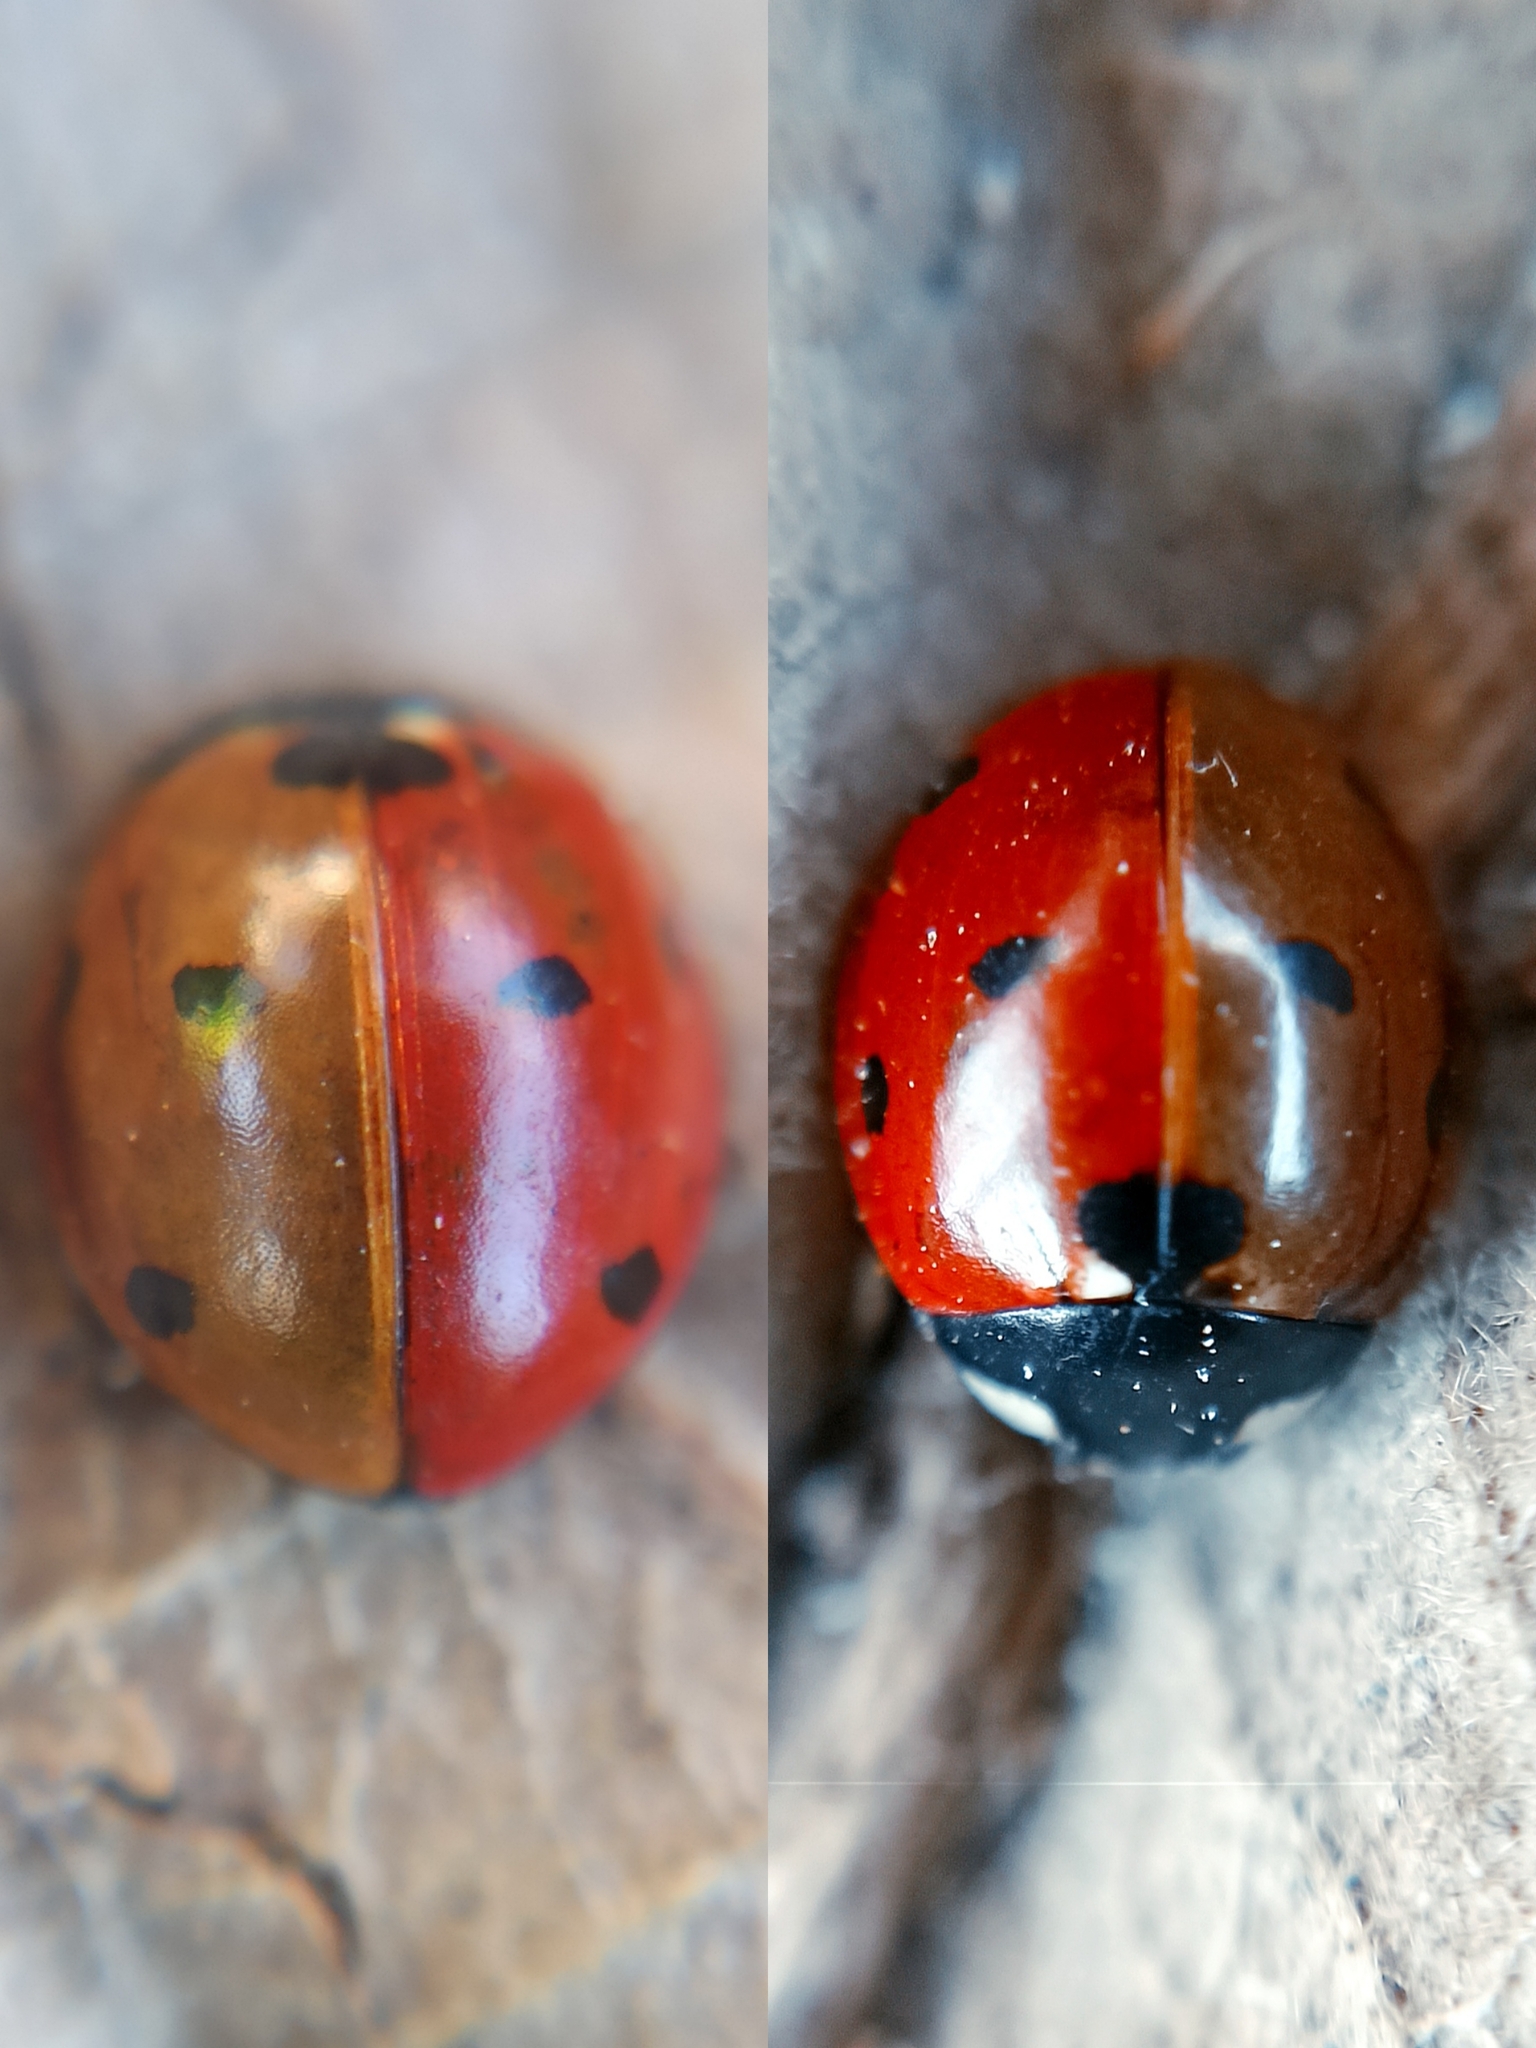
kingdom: Animalia
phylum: Arthropoda
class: Insecta
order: Coleoptera
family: Coccinellidae
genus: Coccinella
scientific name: Coccinella septempunctata
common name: Sevenspotted lady beetle
